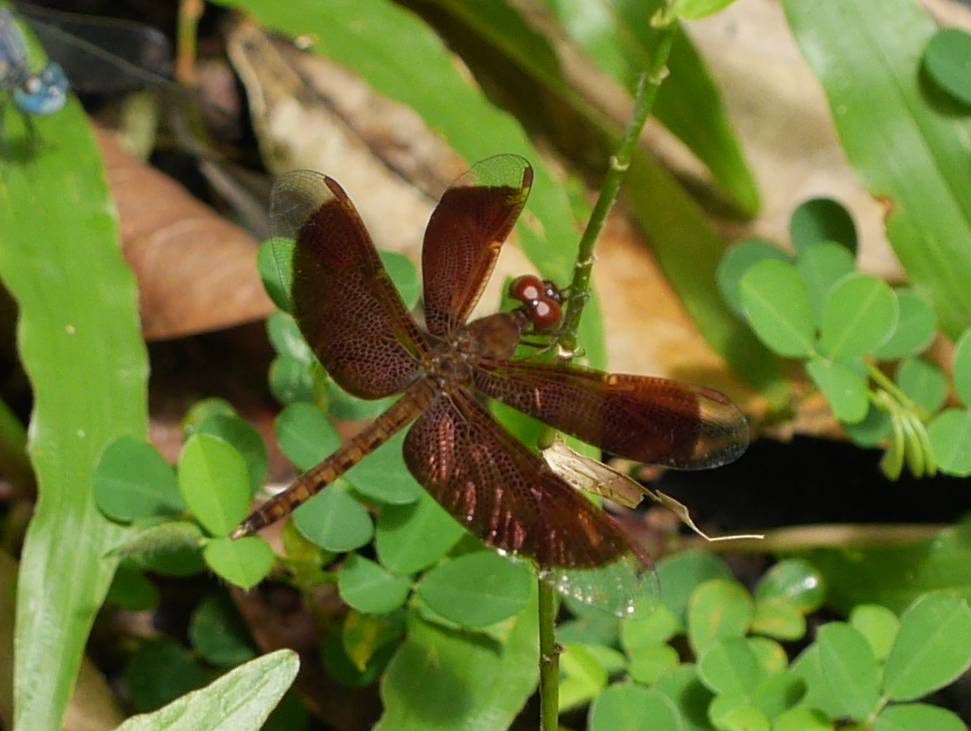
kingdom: Animalia
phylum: Arthropoda
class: Insecta
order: Odonata
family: Libellulidae
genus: Neurothemis
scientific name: Neurothemis fluctuans
